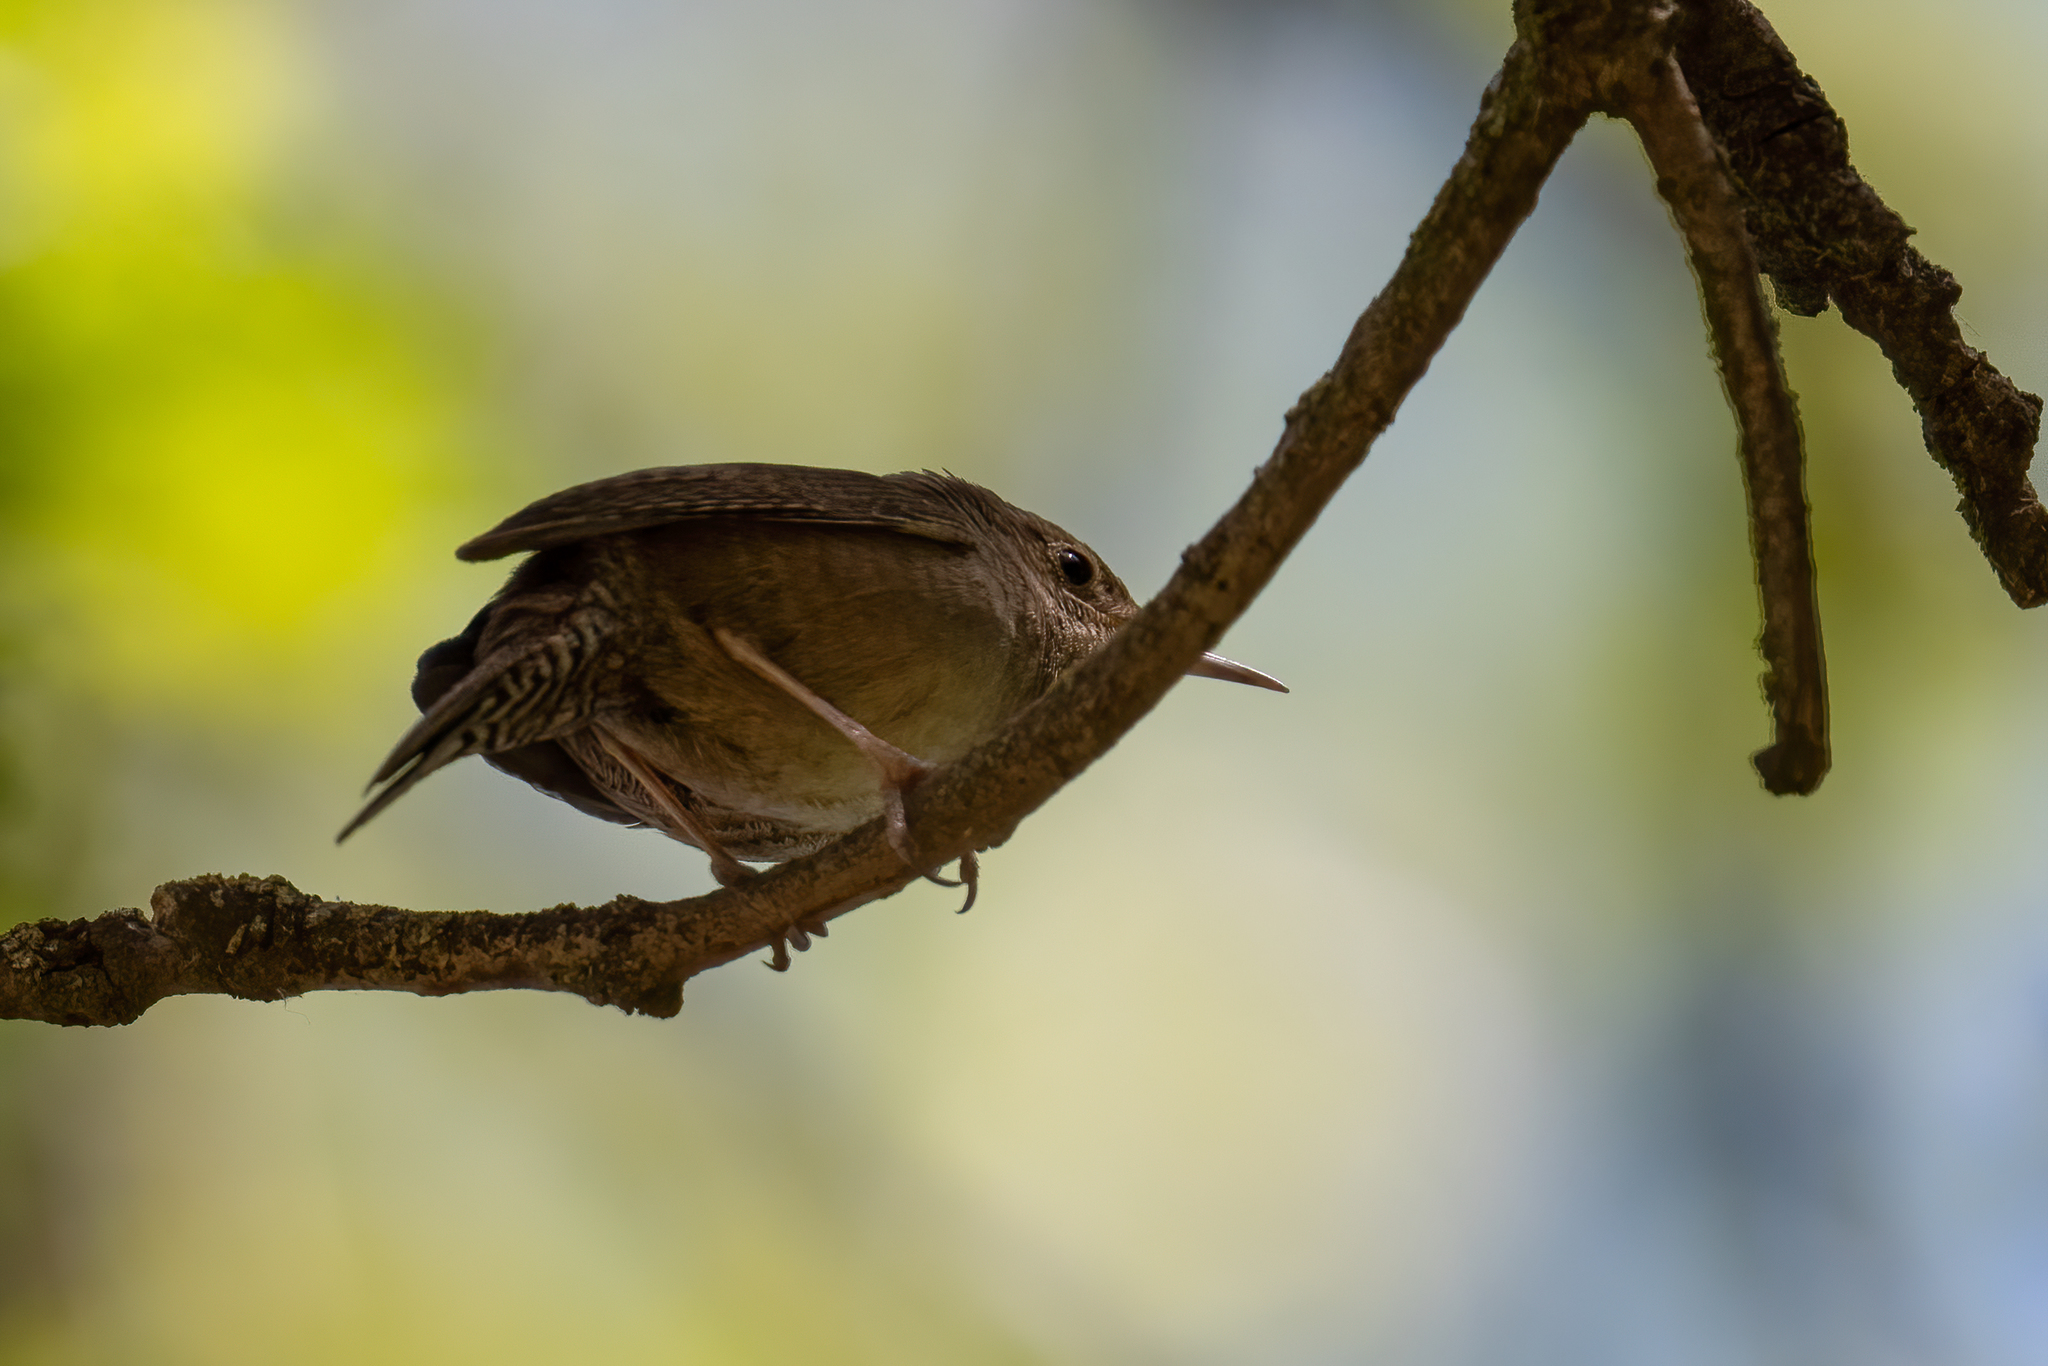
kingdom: Animalia
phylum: Chordata
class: Aves
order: Passeriformes
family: Troglodytidae
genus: Troglodytes
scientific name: Troglodytes aedon
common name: House wren
